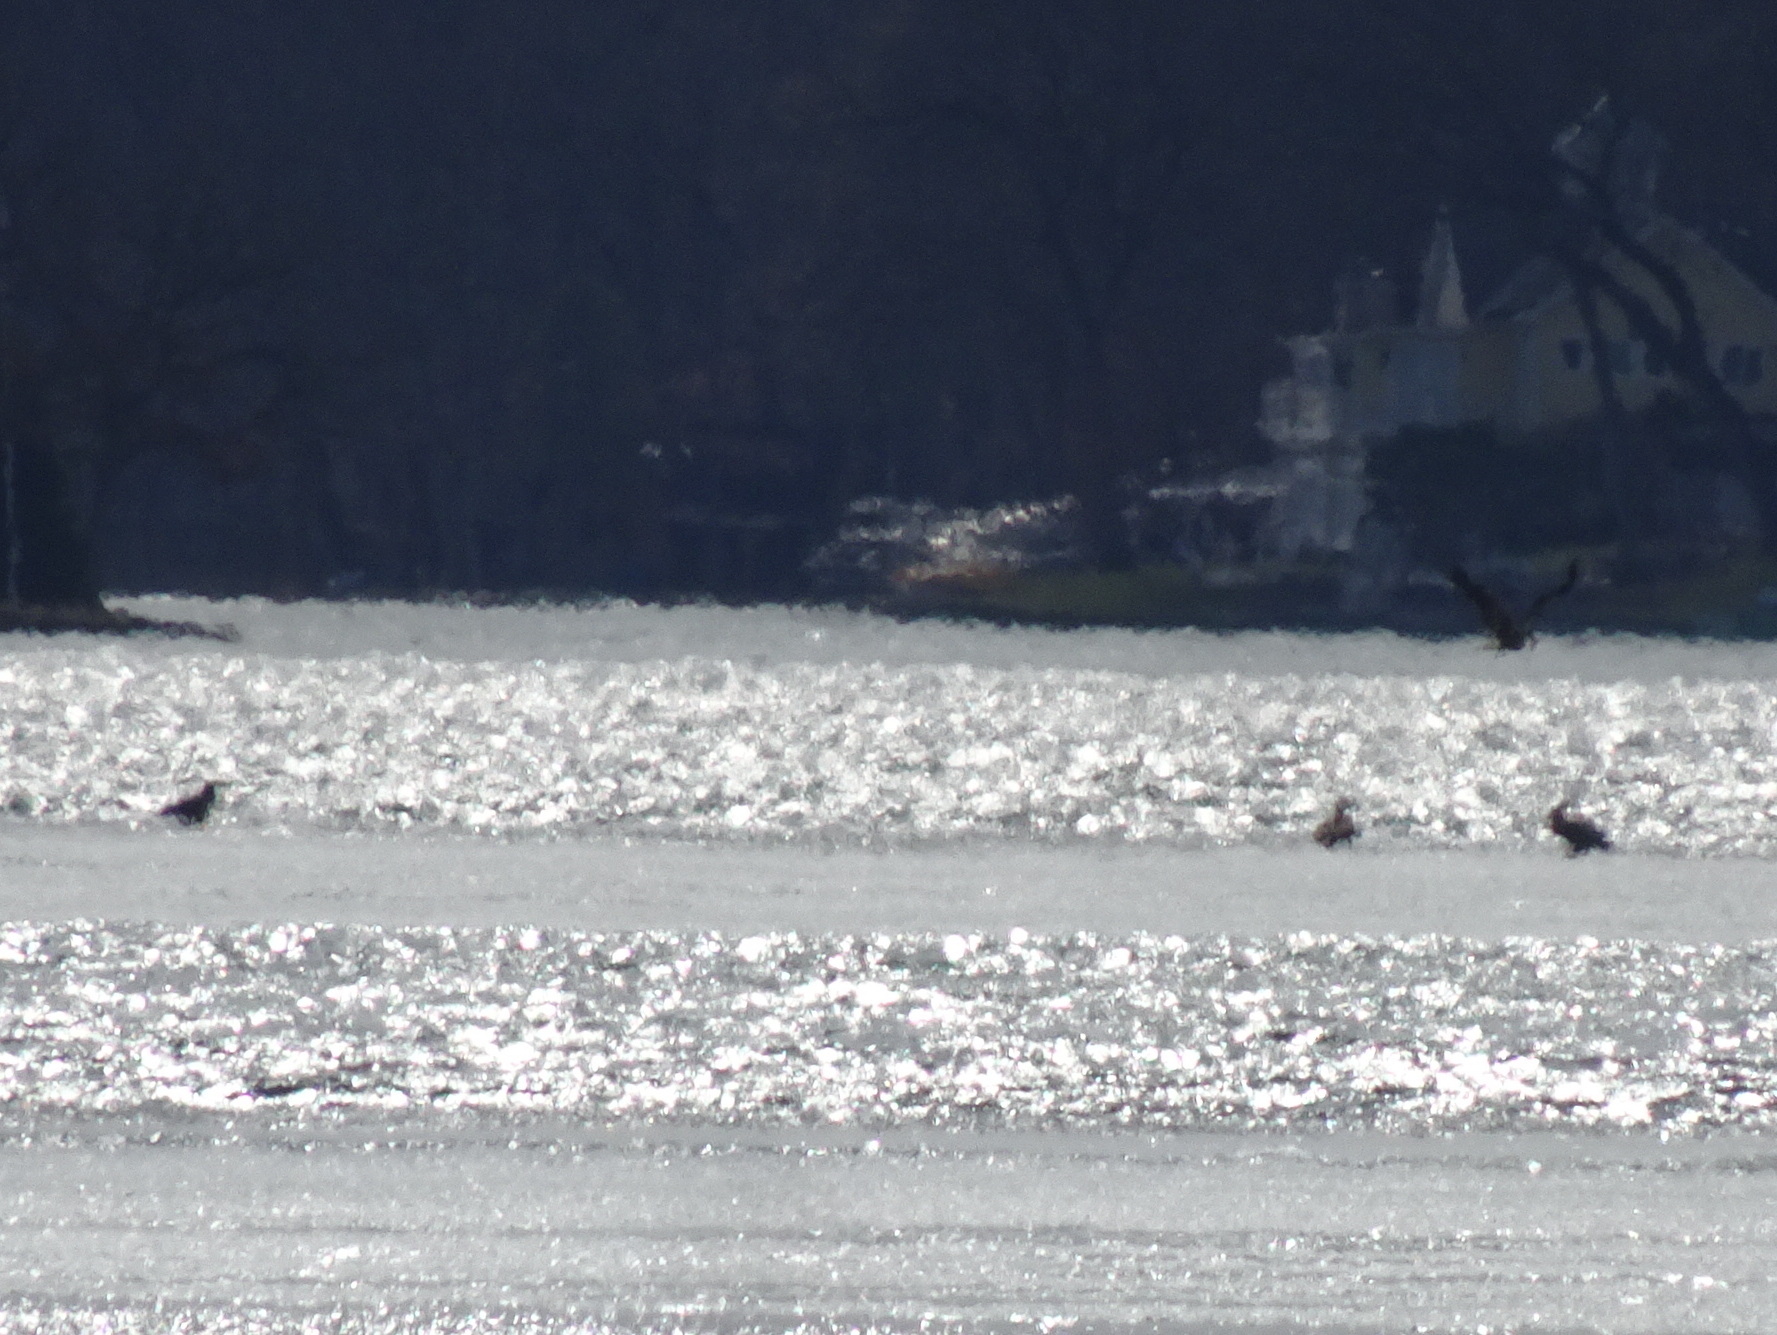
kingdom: Animalia
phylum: Chordata
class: Aves
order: Accipitriformes
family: Accipitridae
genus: Haliaeetus
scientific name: Haliaeetus leucocephalus
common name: Bald eagle
